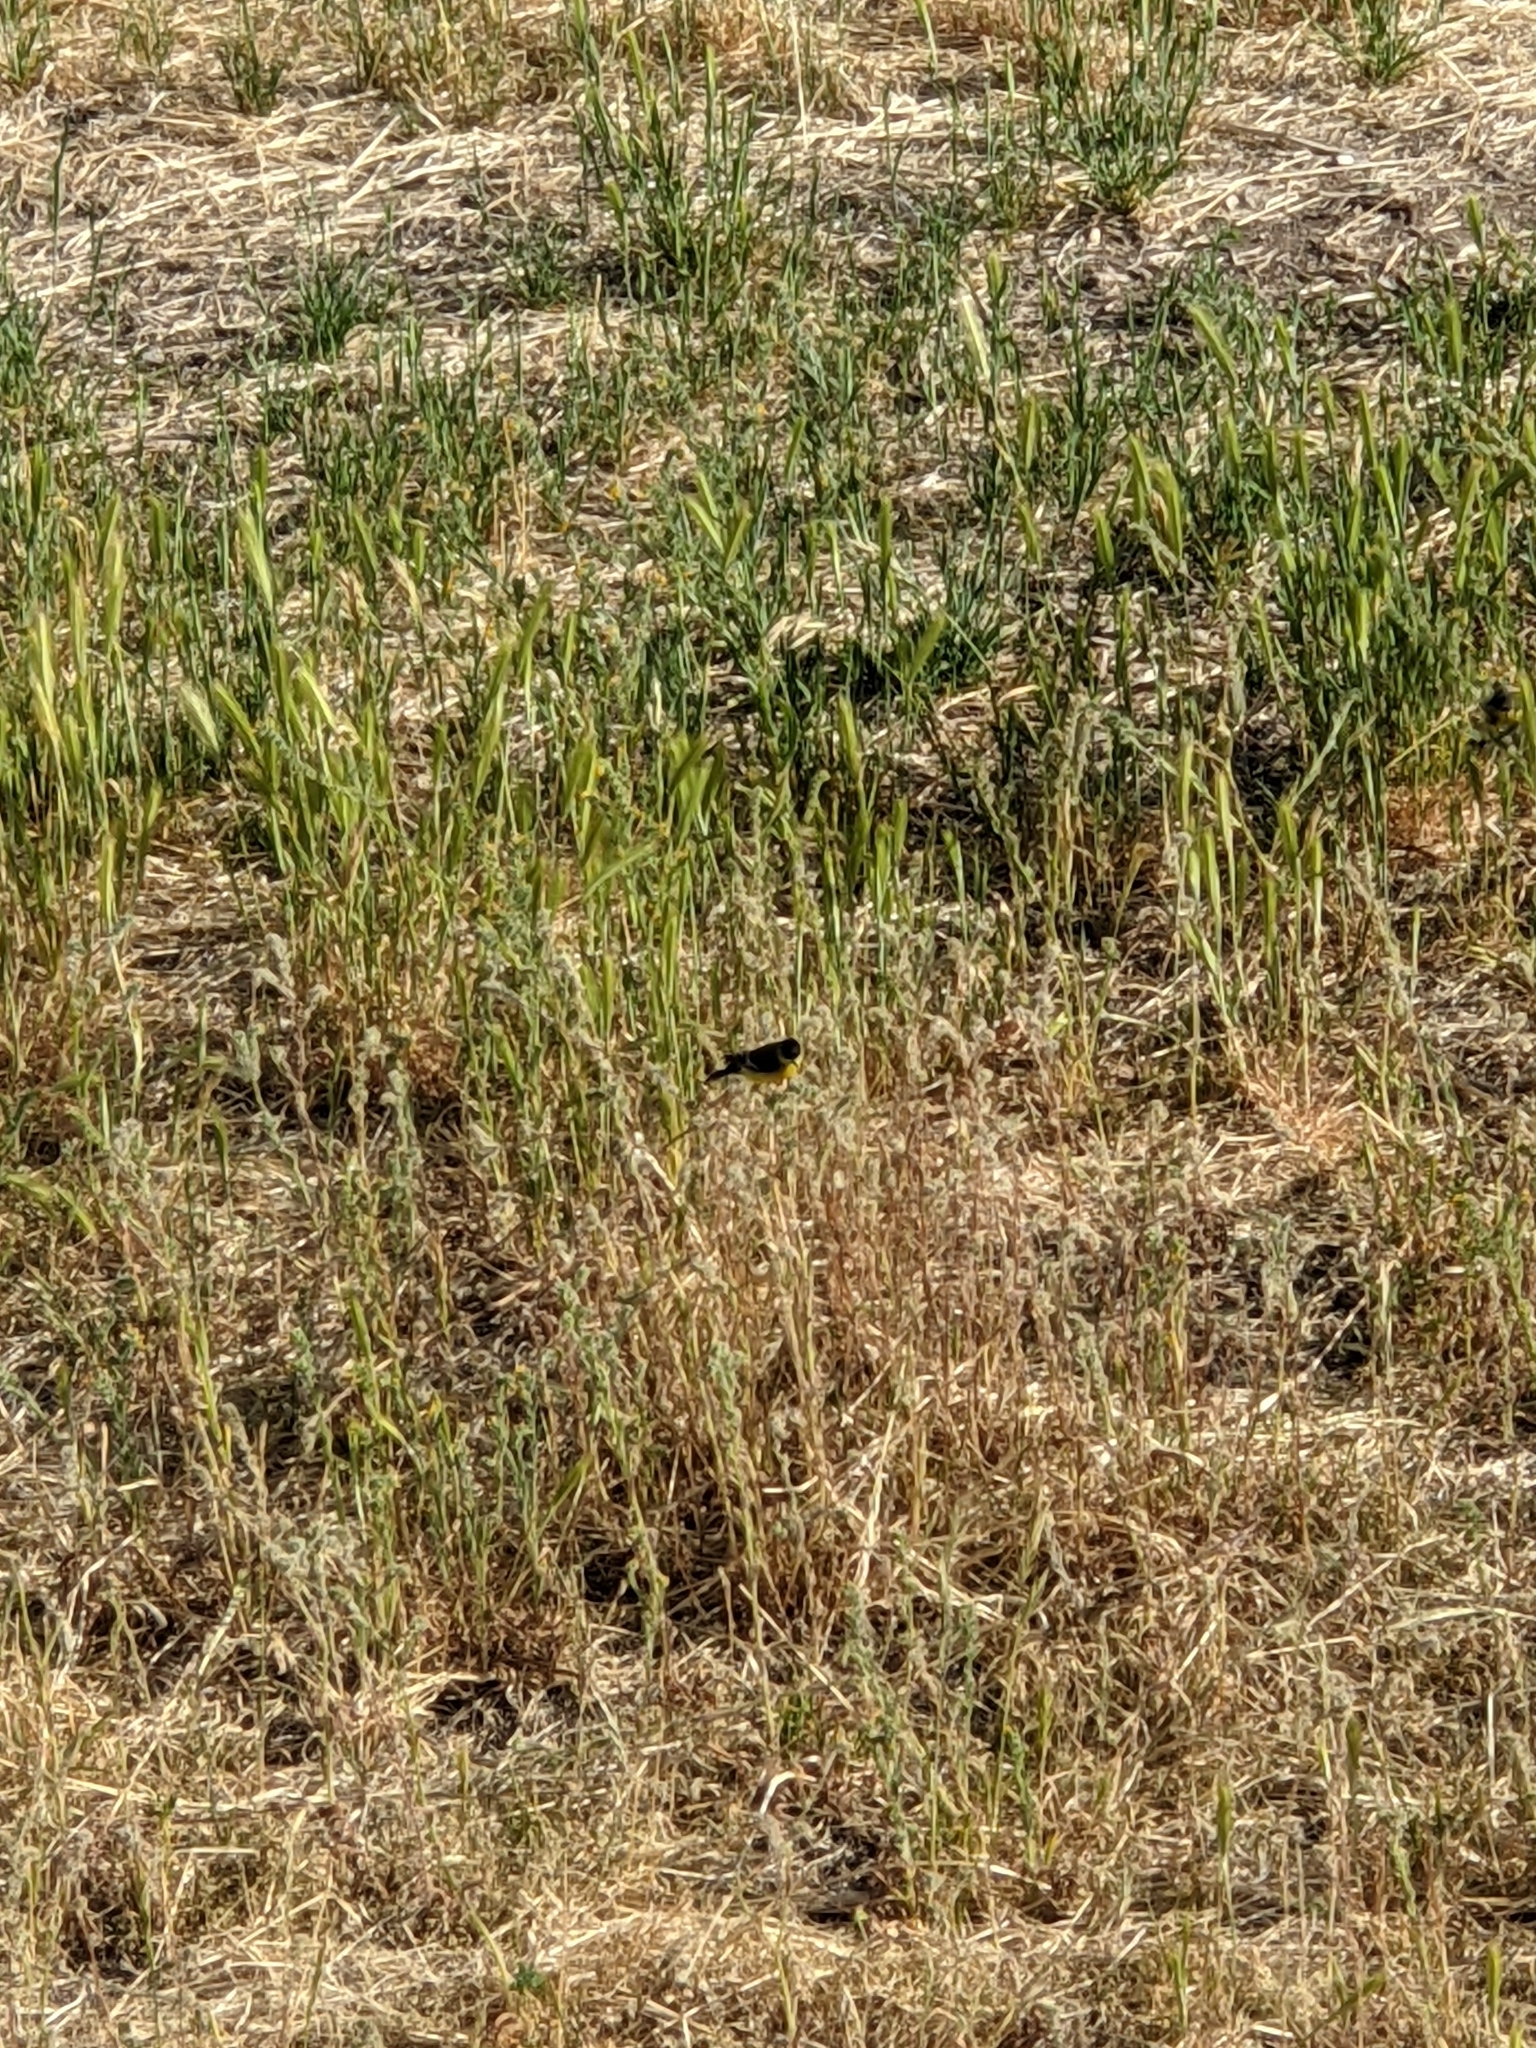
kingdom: Animalia
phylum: Chordata
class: Aves
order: Passeriformes
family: Fringillidae
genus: Spinus
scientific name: Spinus psaltria
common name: Lesser goldfinch
